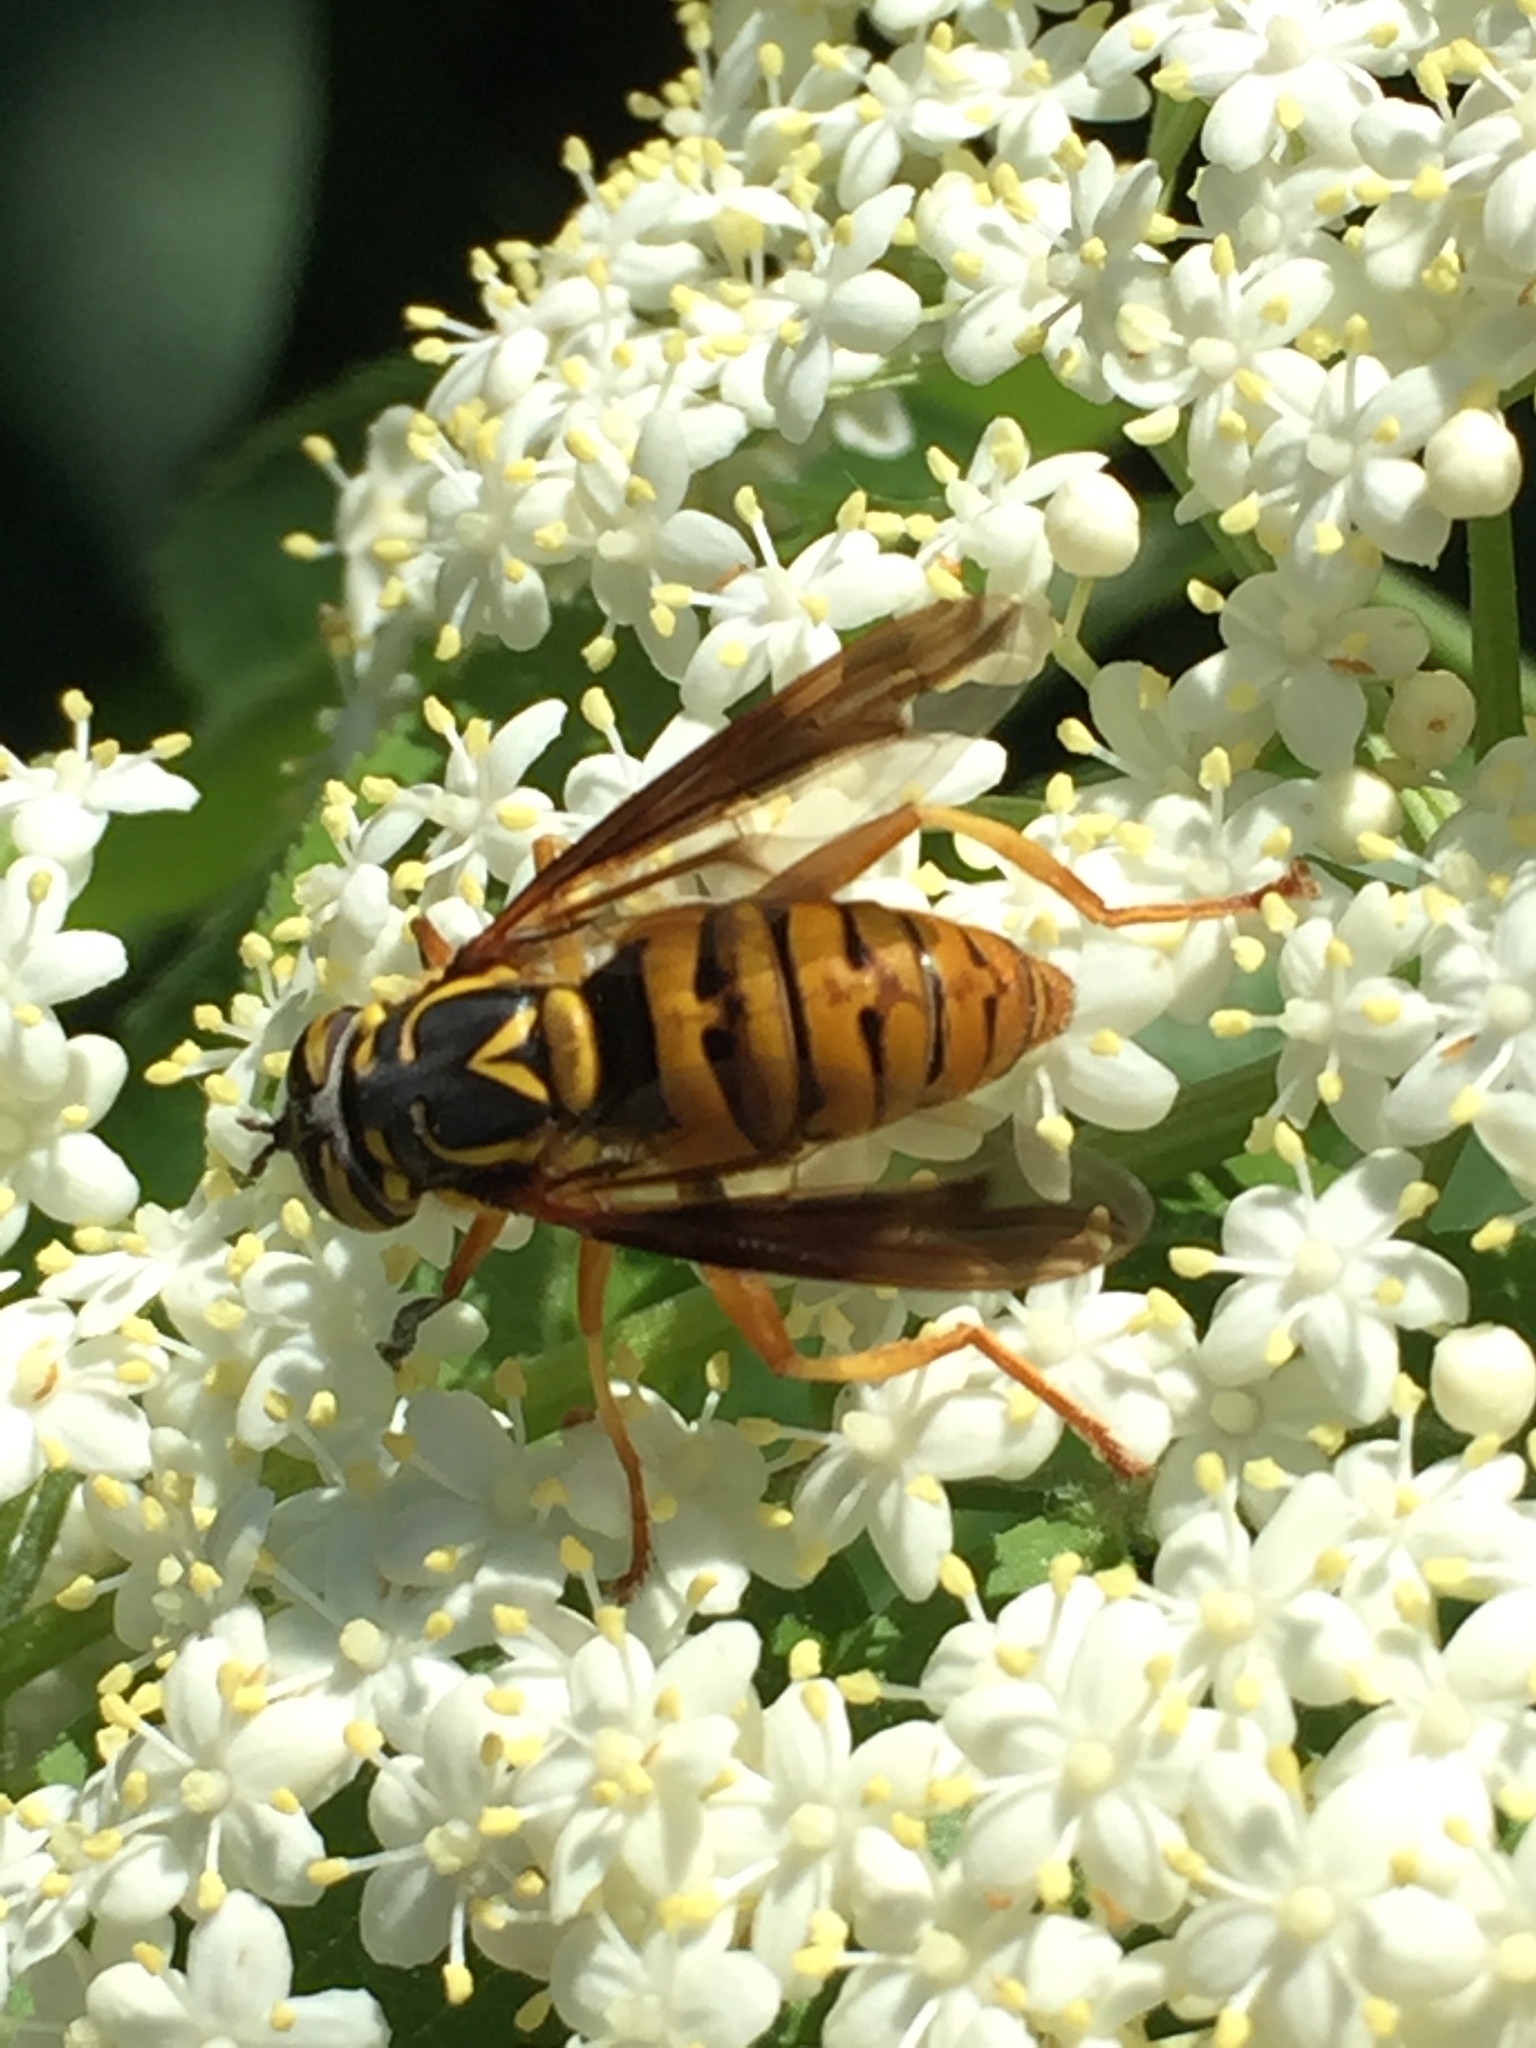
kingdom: Animalia
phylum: Arthropoda
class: Insecta
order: Diptera
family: Syrphidae
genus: Spilomyia
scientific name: Spilomyia alcimus
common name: Broad-banded hornet fly
